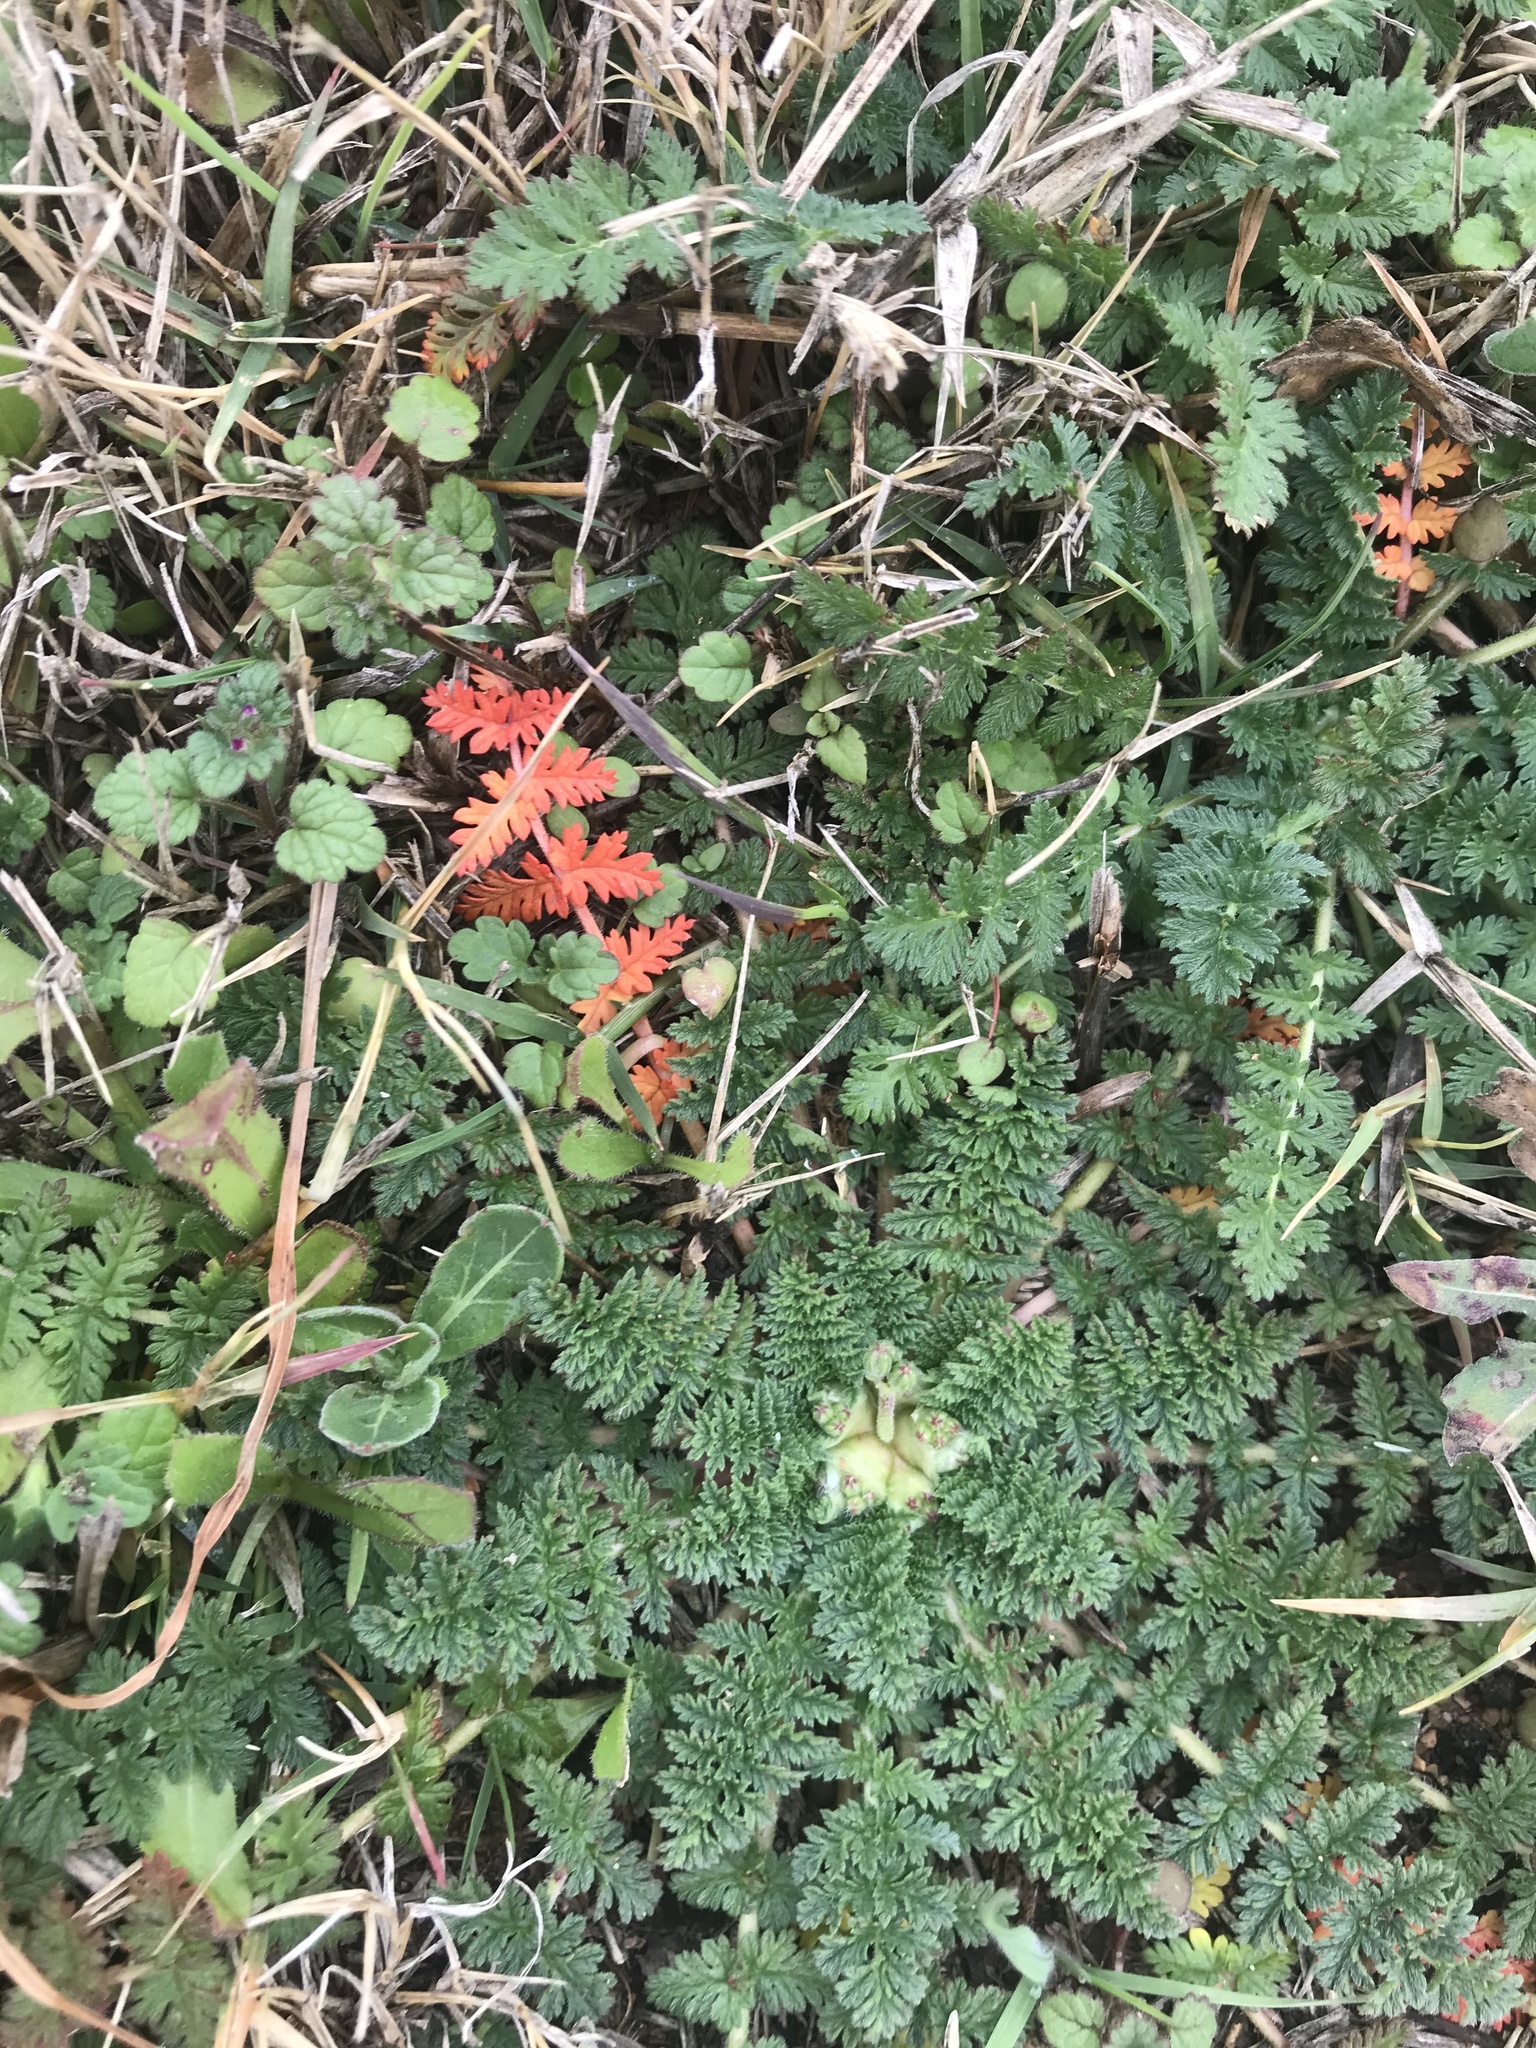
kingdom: Plantae
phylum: Tracheophyta
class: Magnoliopsida
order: Geraniales
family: Geraniaceae
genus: Erodium
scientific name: Erodium cicutarium
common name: Common stork's-bill
